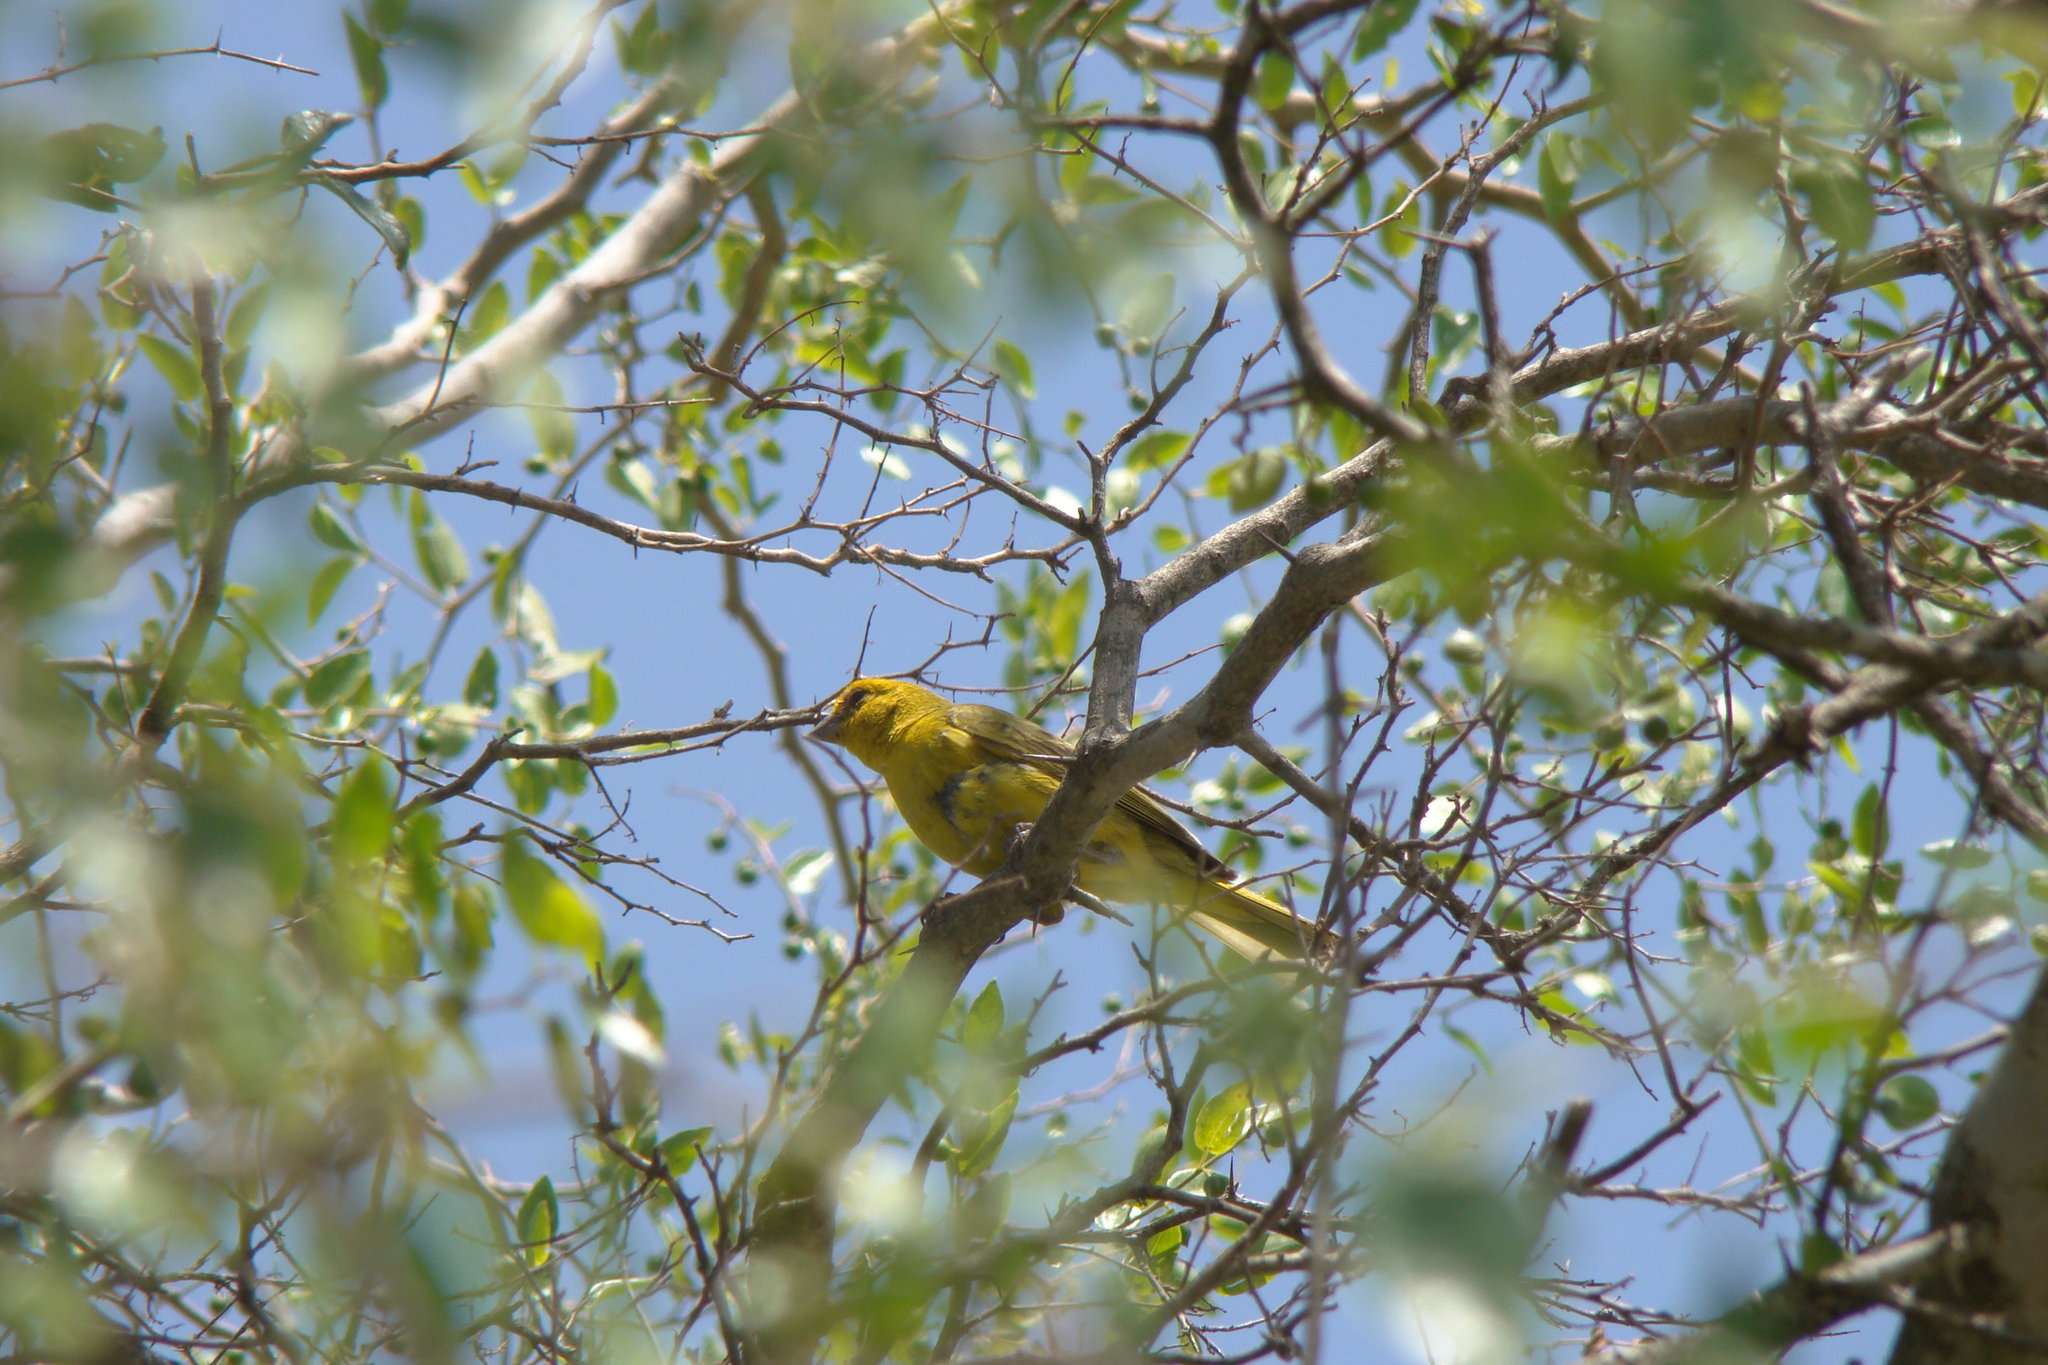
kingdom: Animalia
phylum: Chordata
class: Aves
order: Passeriformes
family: Thraupidae
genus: Sicalis
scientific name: Sicalis flaveola
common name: Saffron finch
